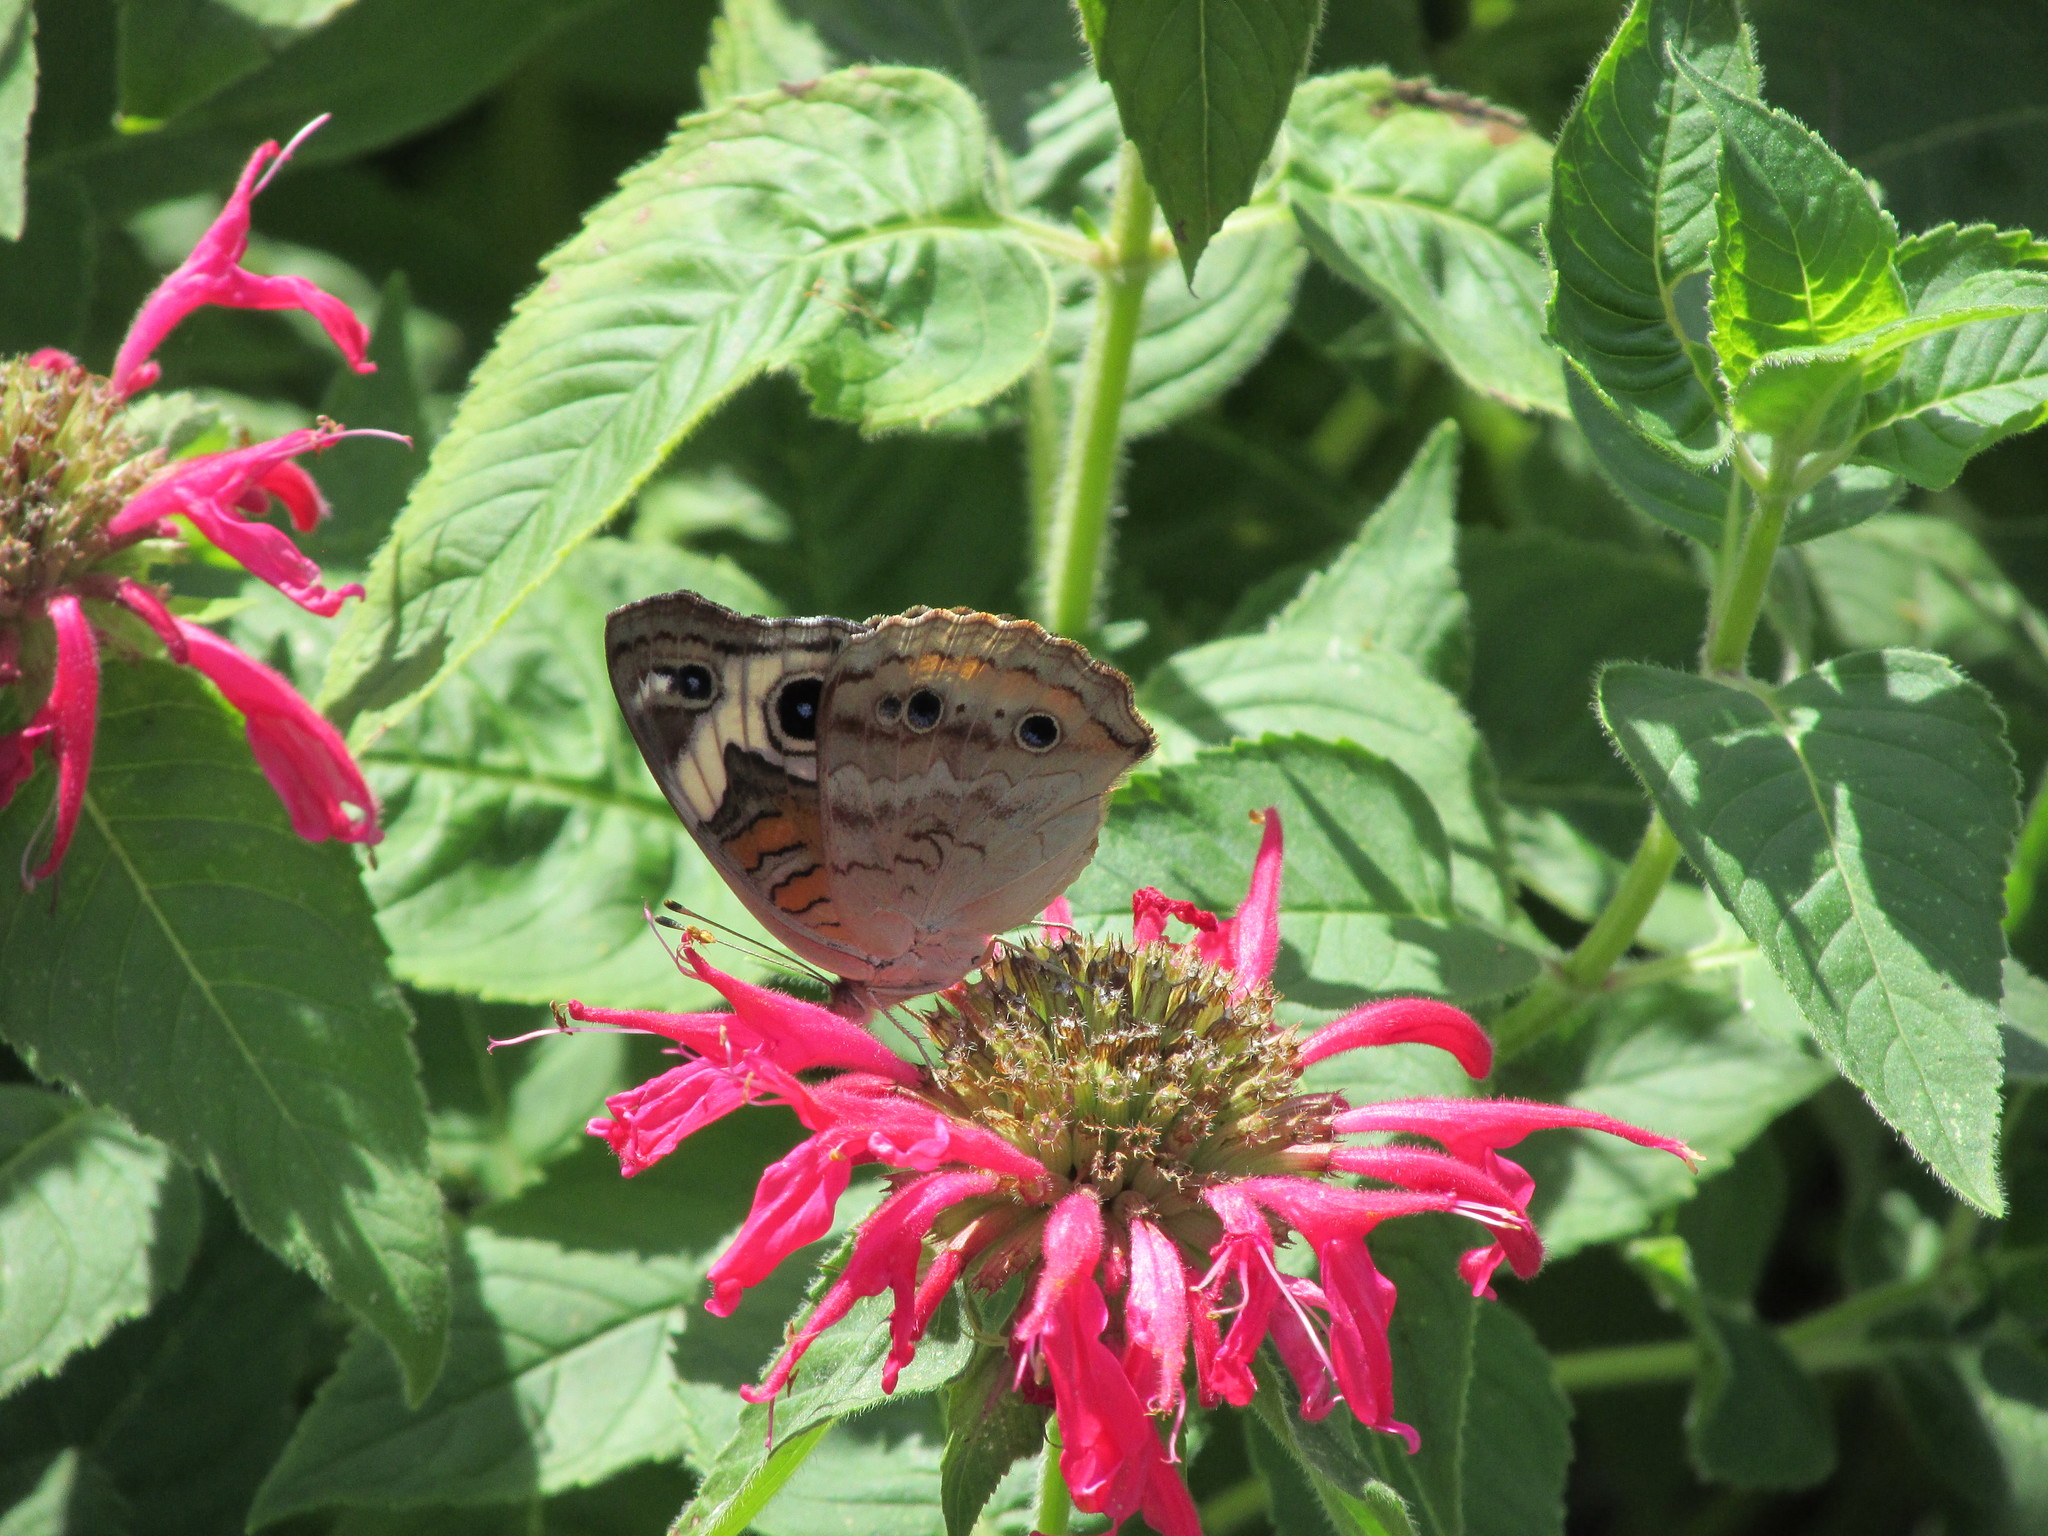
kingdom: Animalia
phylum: Arthropoda
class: Insecta
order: Lepidoptera
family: Nymphalidae
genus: Junonia
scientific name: Junonia coenia
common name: Common buckeye
